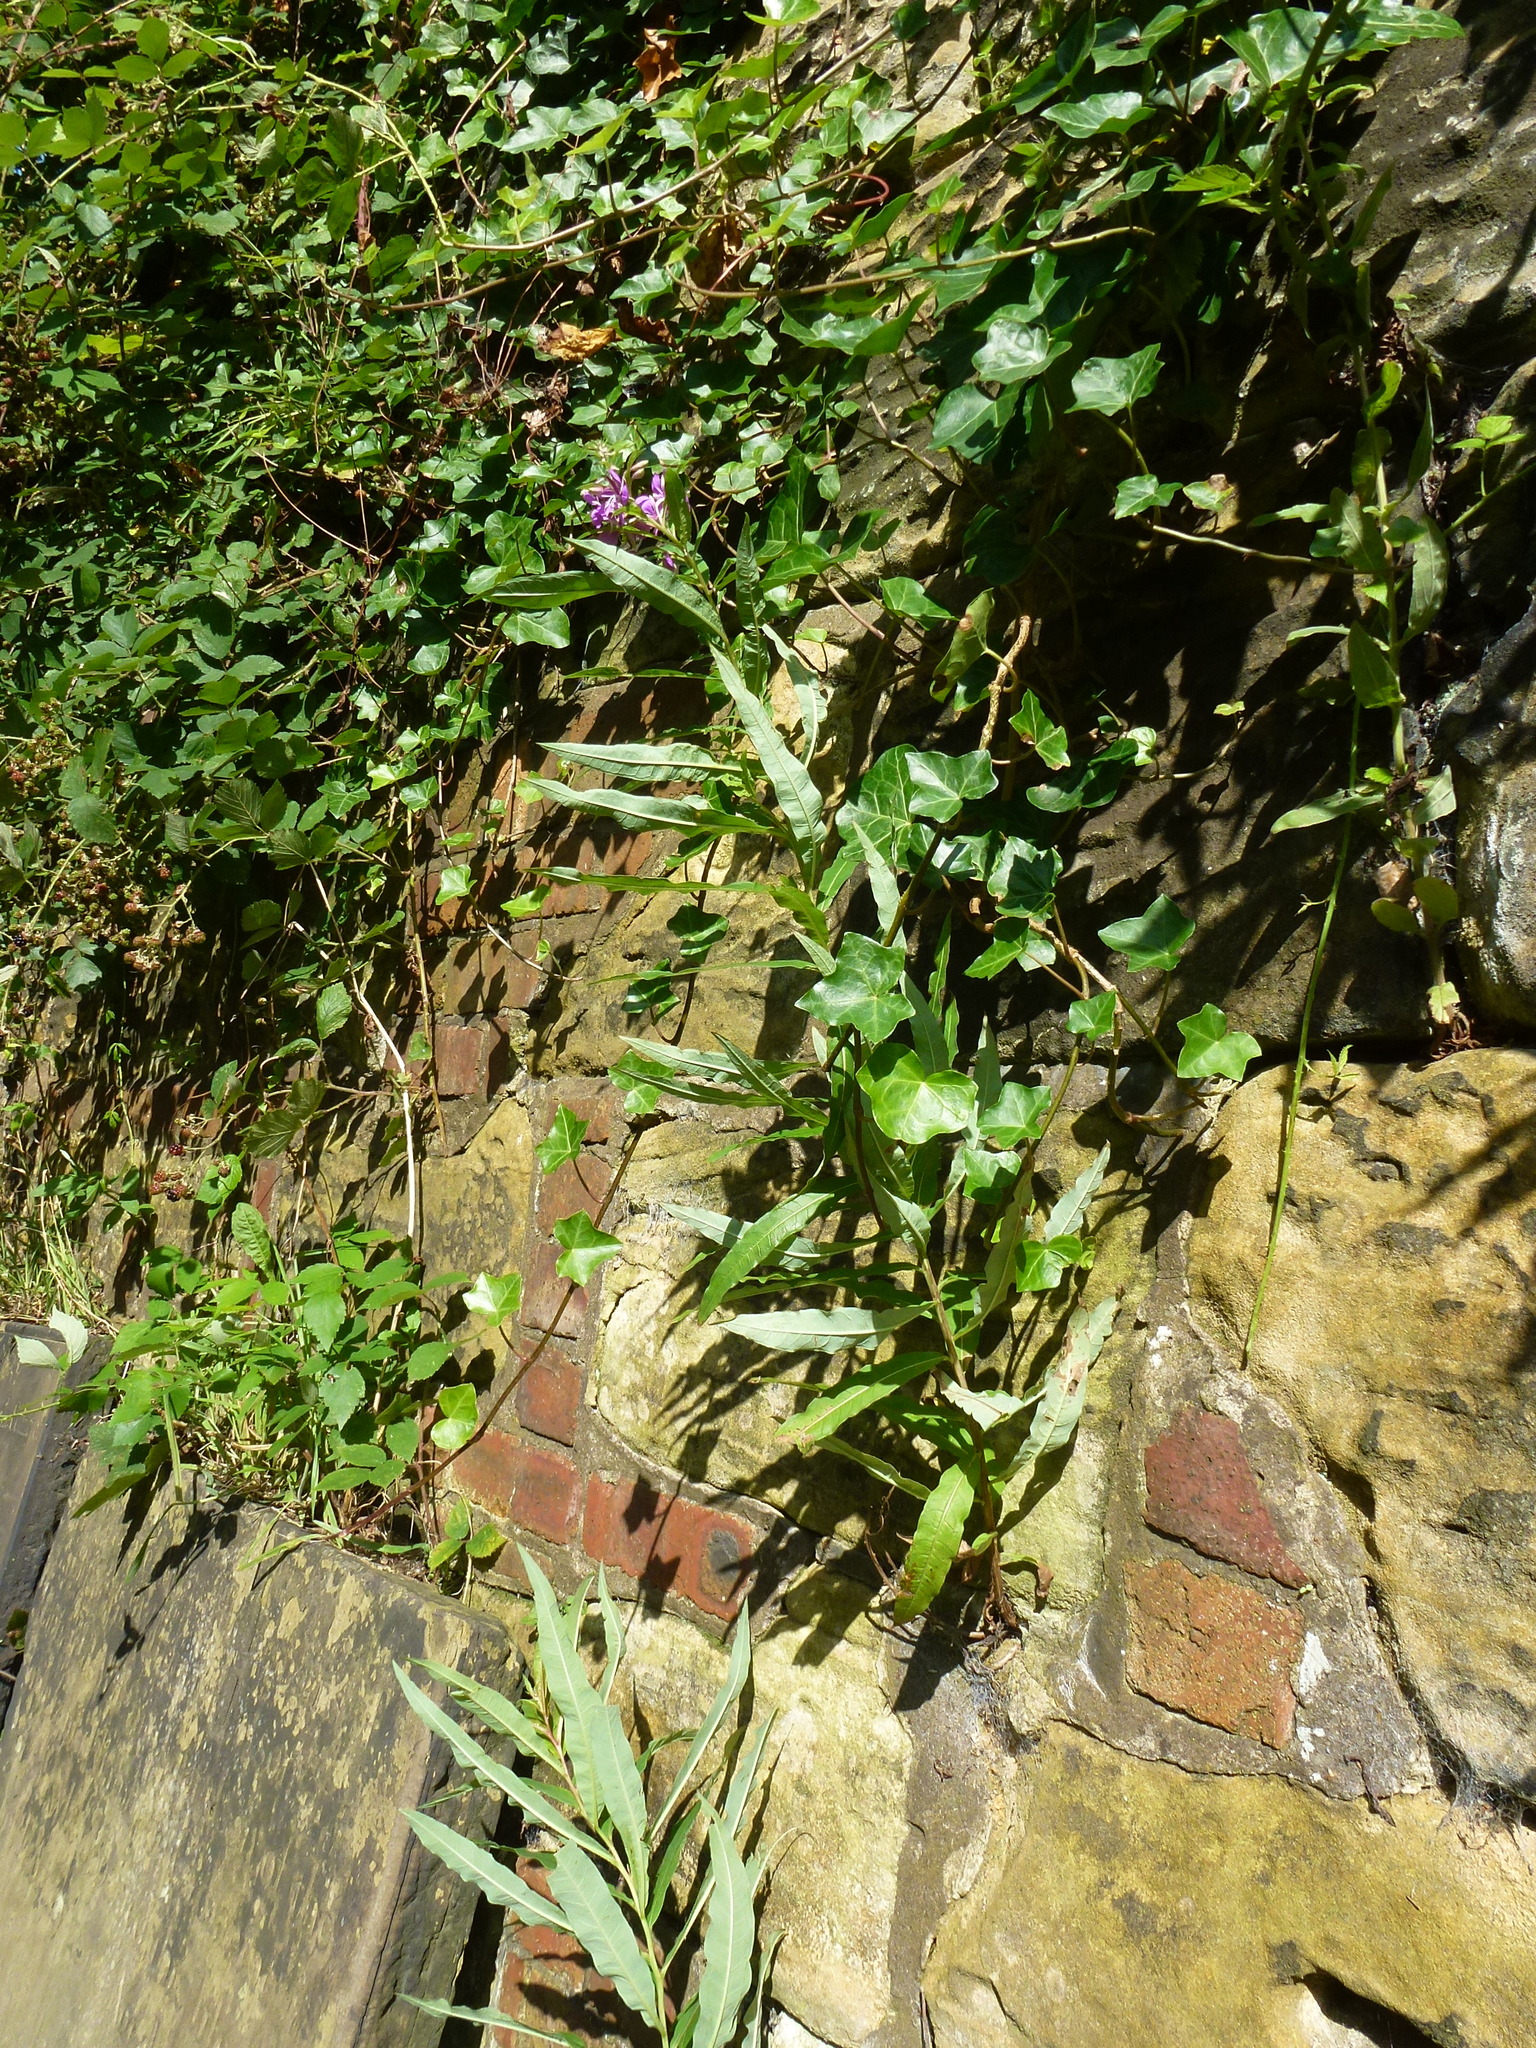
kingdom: Plantae
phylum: Tracheophyta
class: Magnoliopsida
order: Myrtales
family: Onagraceae
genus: Chamaenerion
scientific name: Chamaenerion angustifolium
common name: Fireweed
